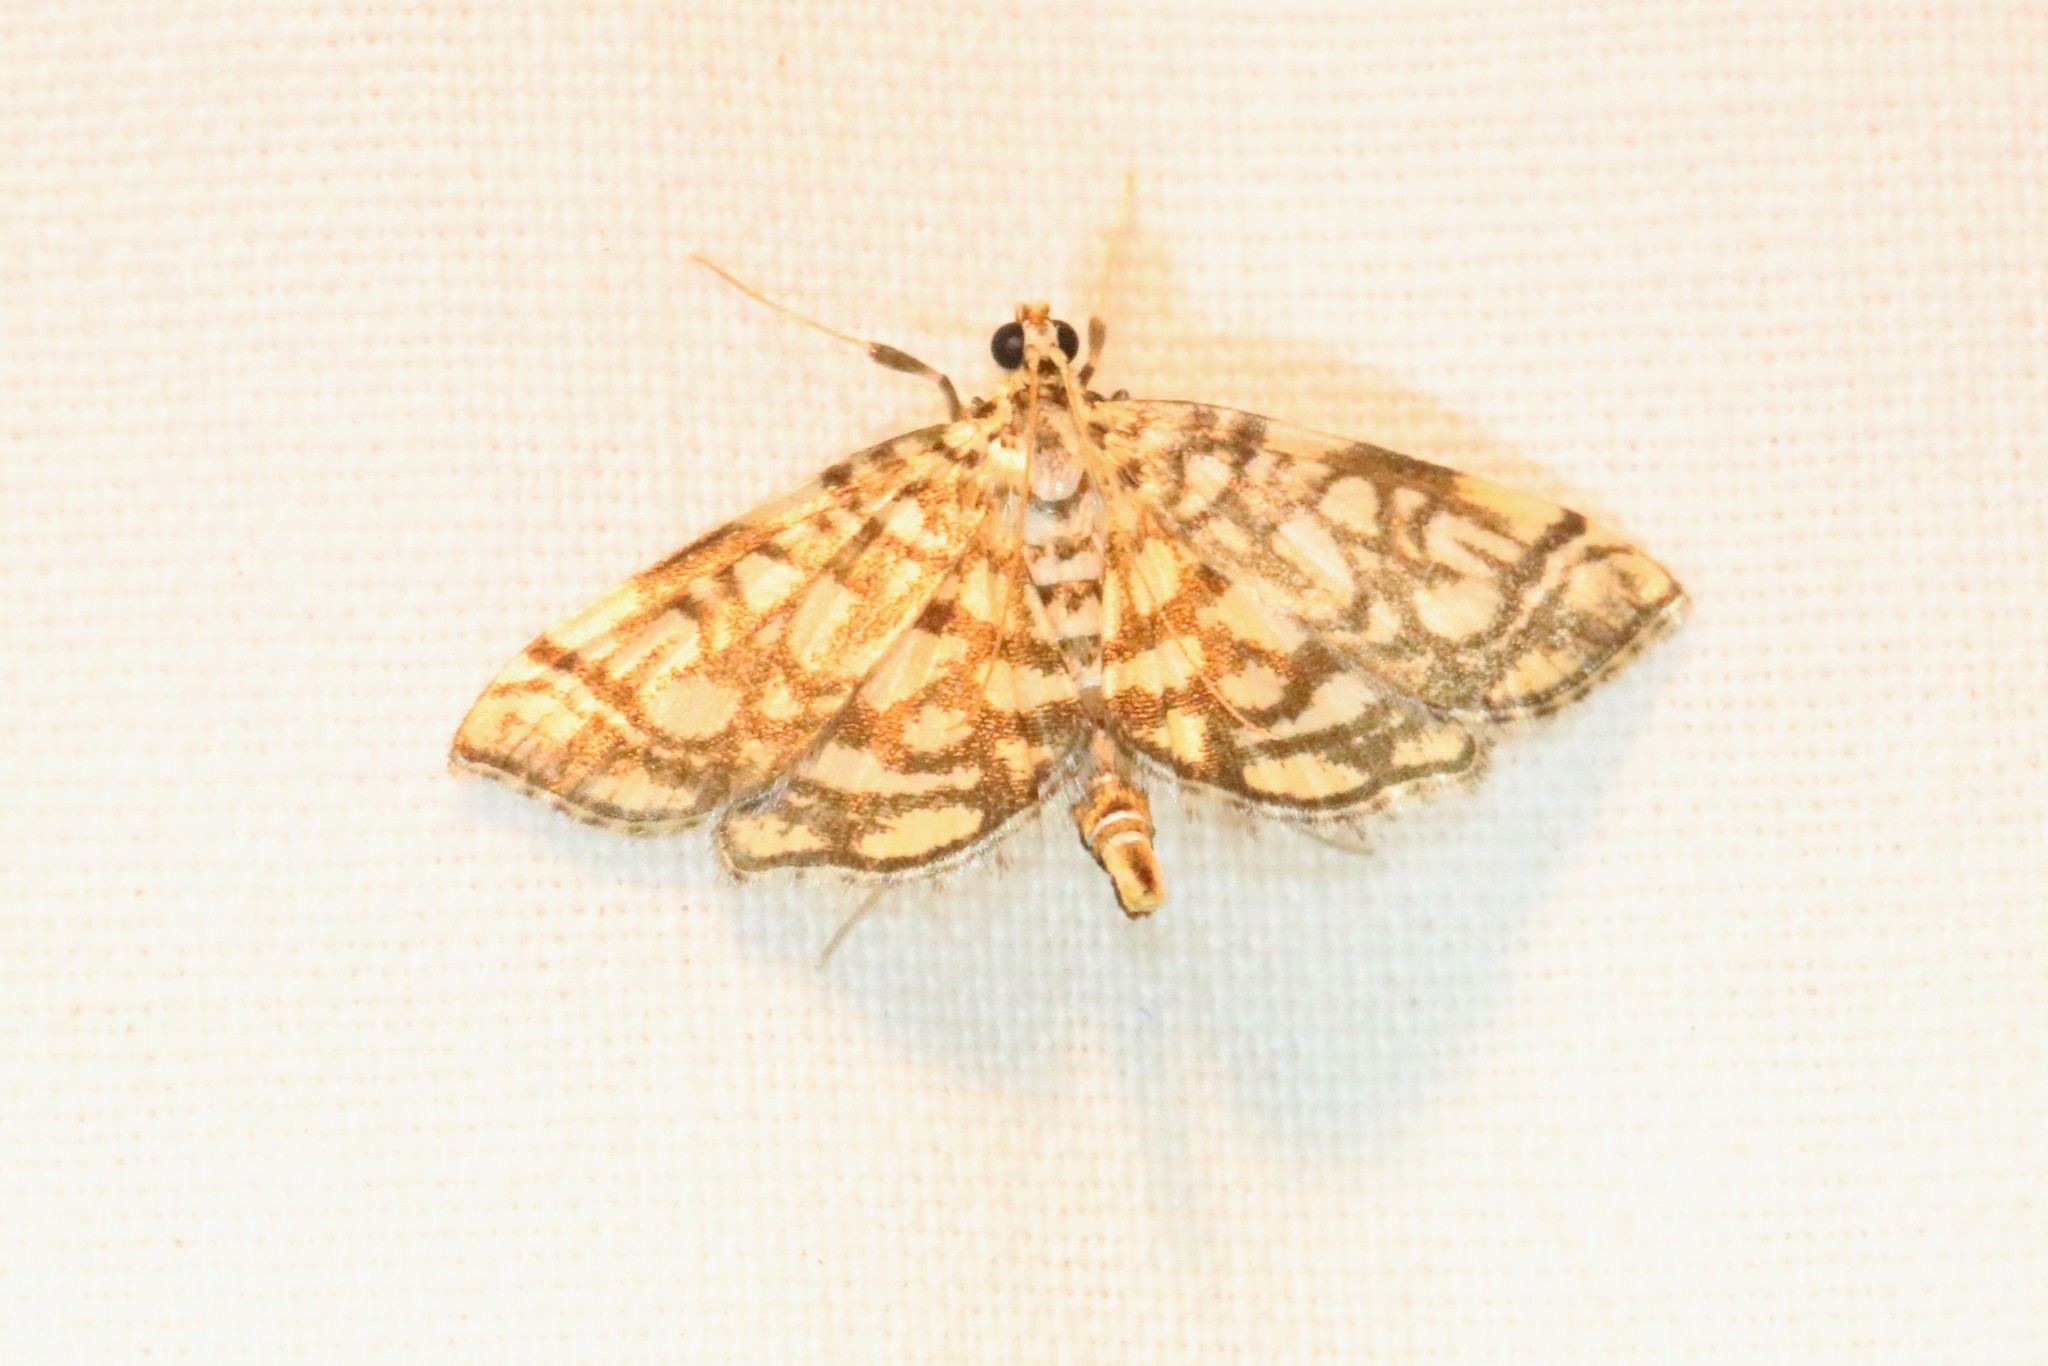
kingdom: Animalia
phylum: Arthropoda
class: Insecta
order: Lepidoptera
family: Crambidae
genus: Lygropia
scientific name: Lygropia rivulalis
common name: Bog lygropia moth
